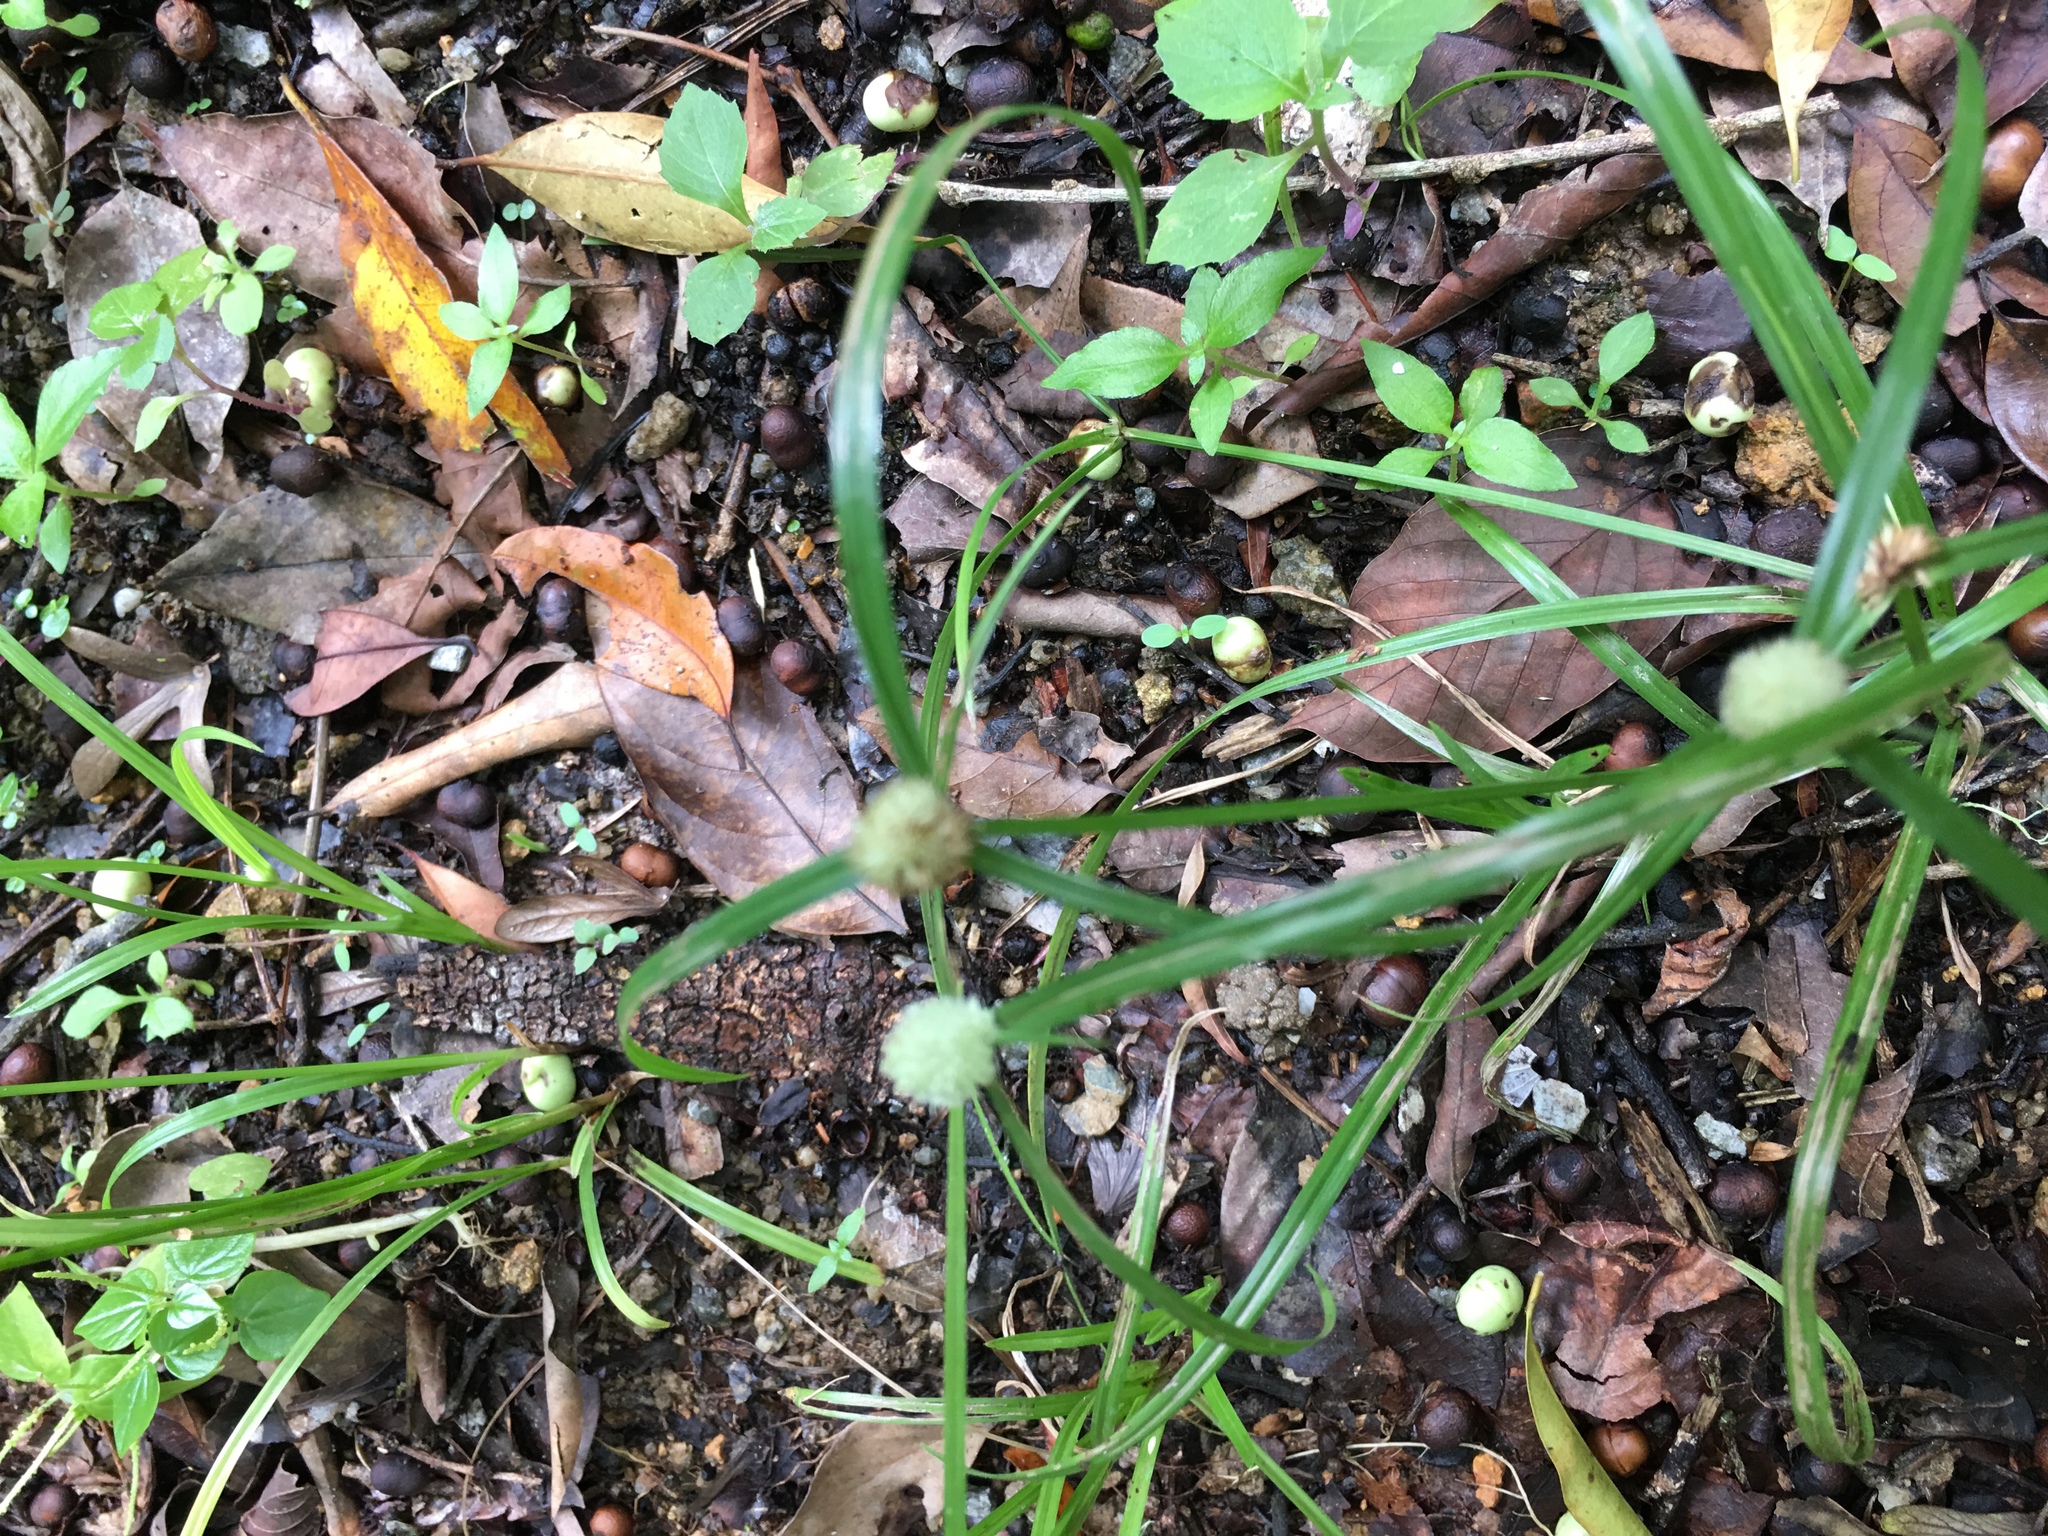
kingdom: Plantae
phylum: Tracheophyta
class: Liliopsida
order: Poales
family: Cyperaceae
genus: Cyperus
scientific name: Cyperus brevifolius
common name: Globe kyllinga
